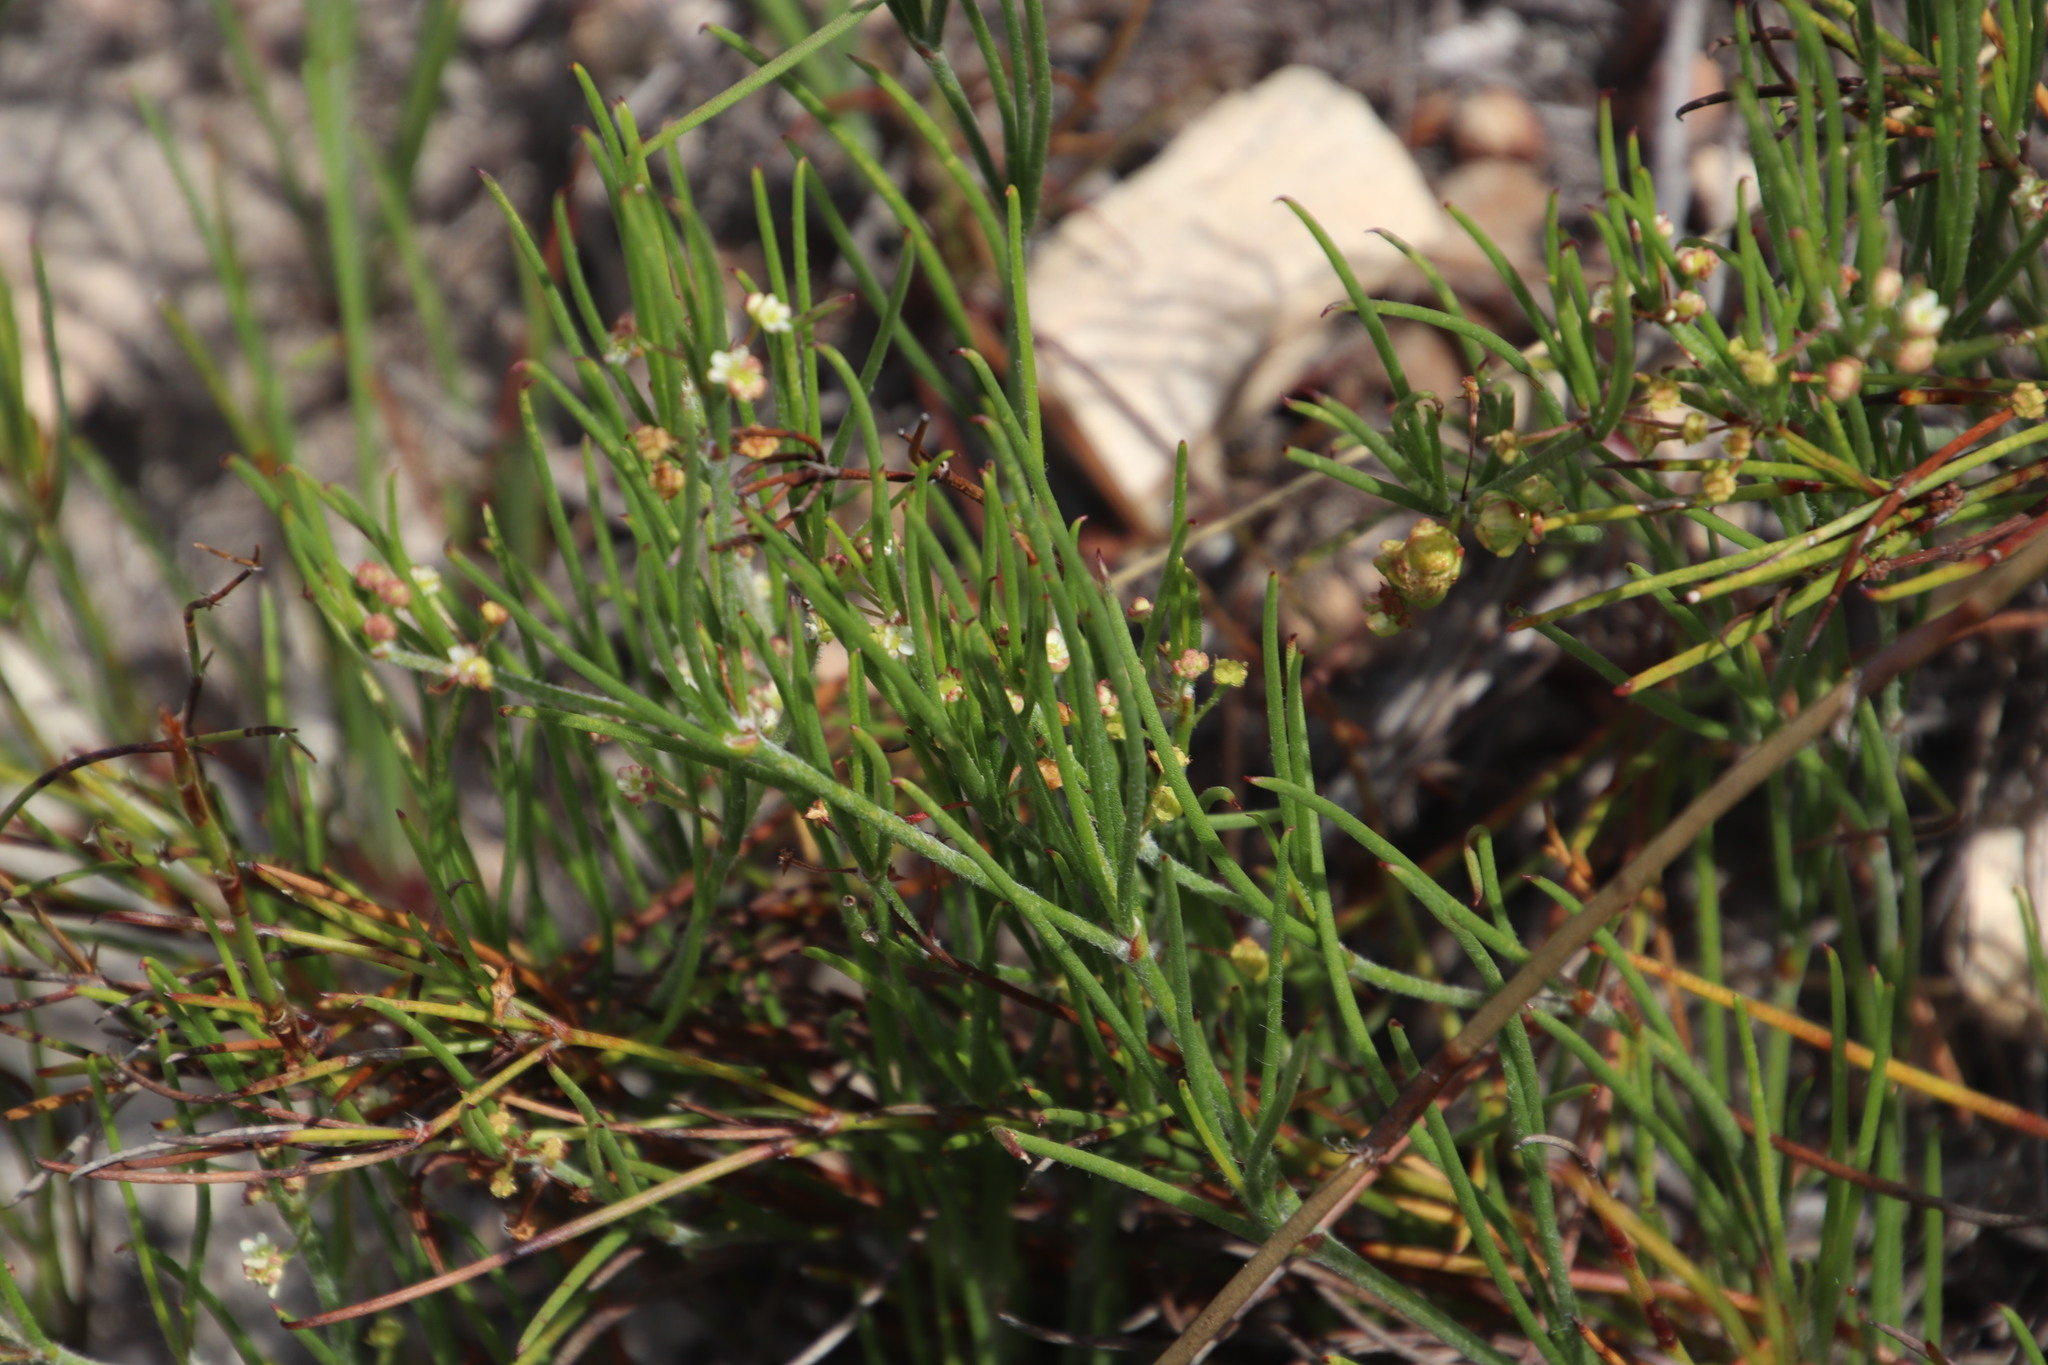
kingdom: Plantae
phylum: Tracheophyta
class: Magnoliopsida
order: Apiales
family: Apiaceae
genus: Centella
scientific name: Centella macrocarpa
